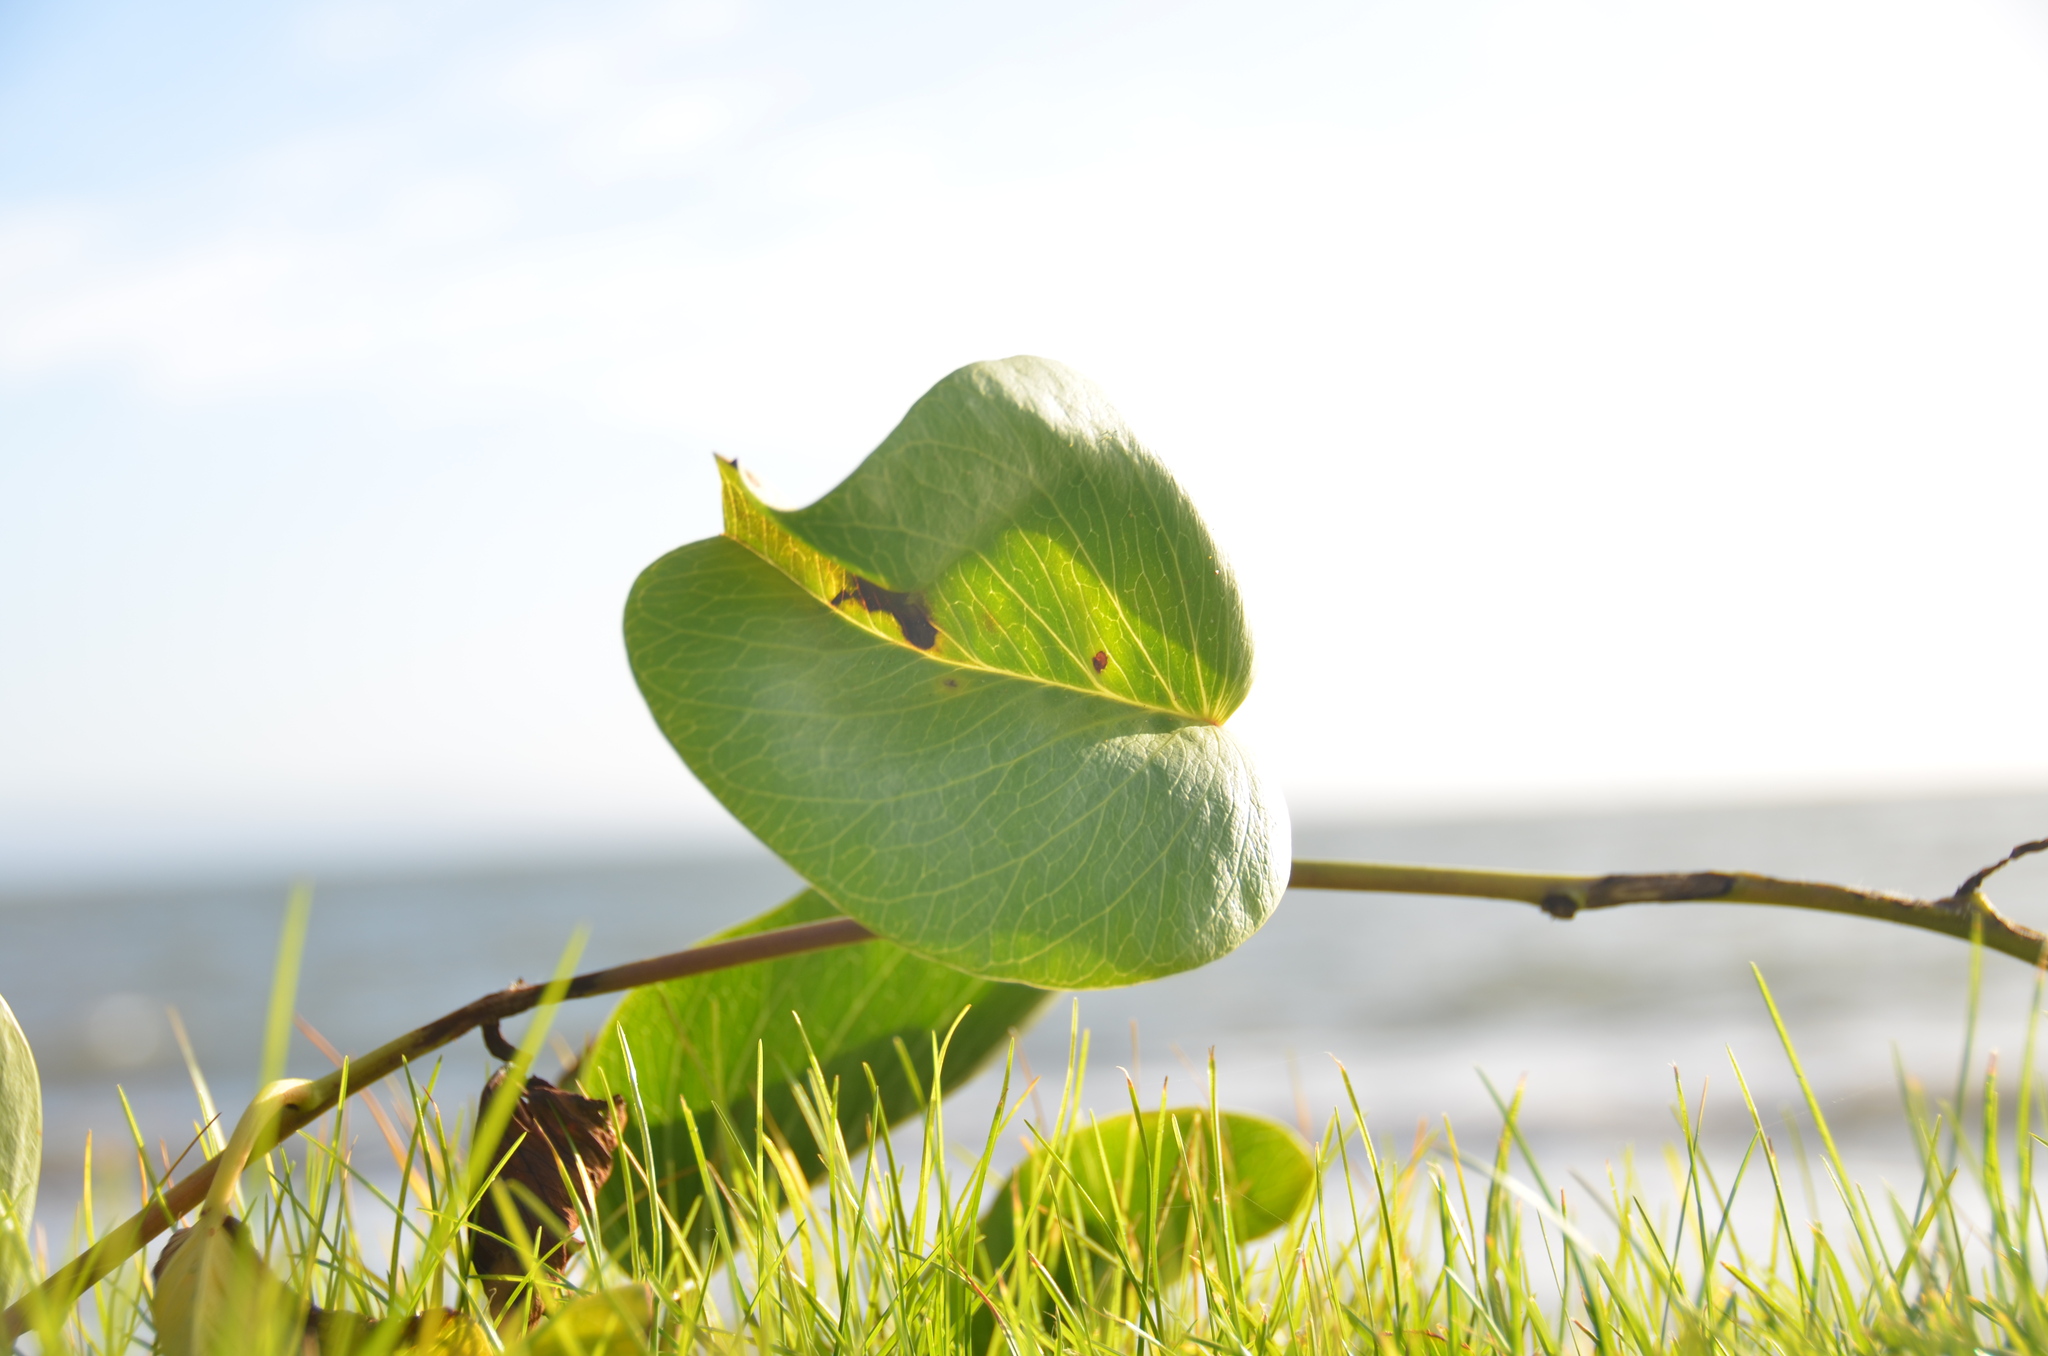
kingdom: Plantae
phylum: Tracheophyta
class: Magnoliopsida
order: Solanales
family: Convolvulaceae
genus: Ipomoea
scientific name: Ipomoea pes-caprae
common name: Beach morning glory
